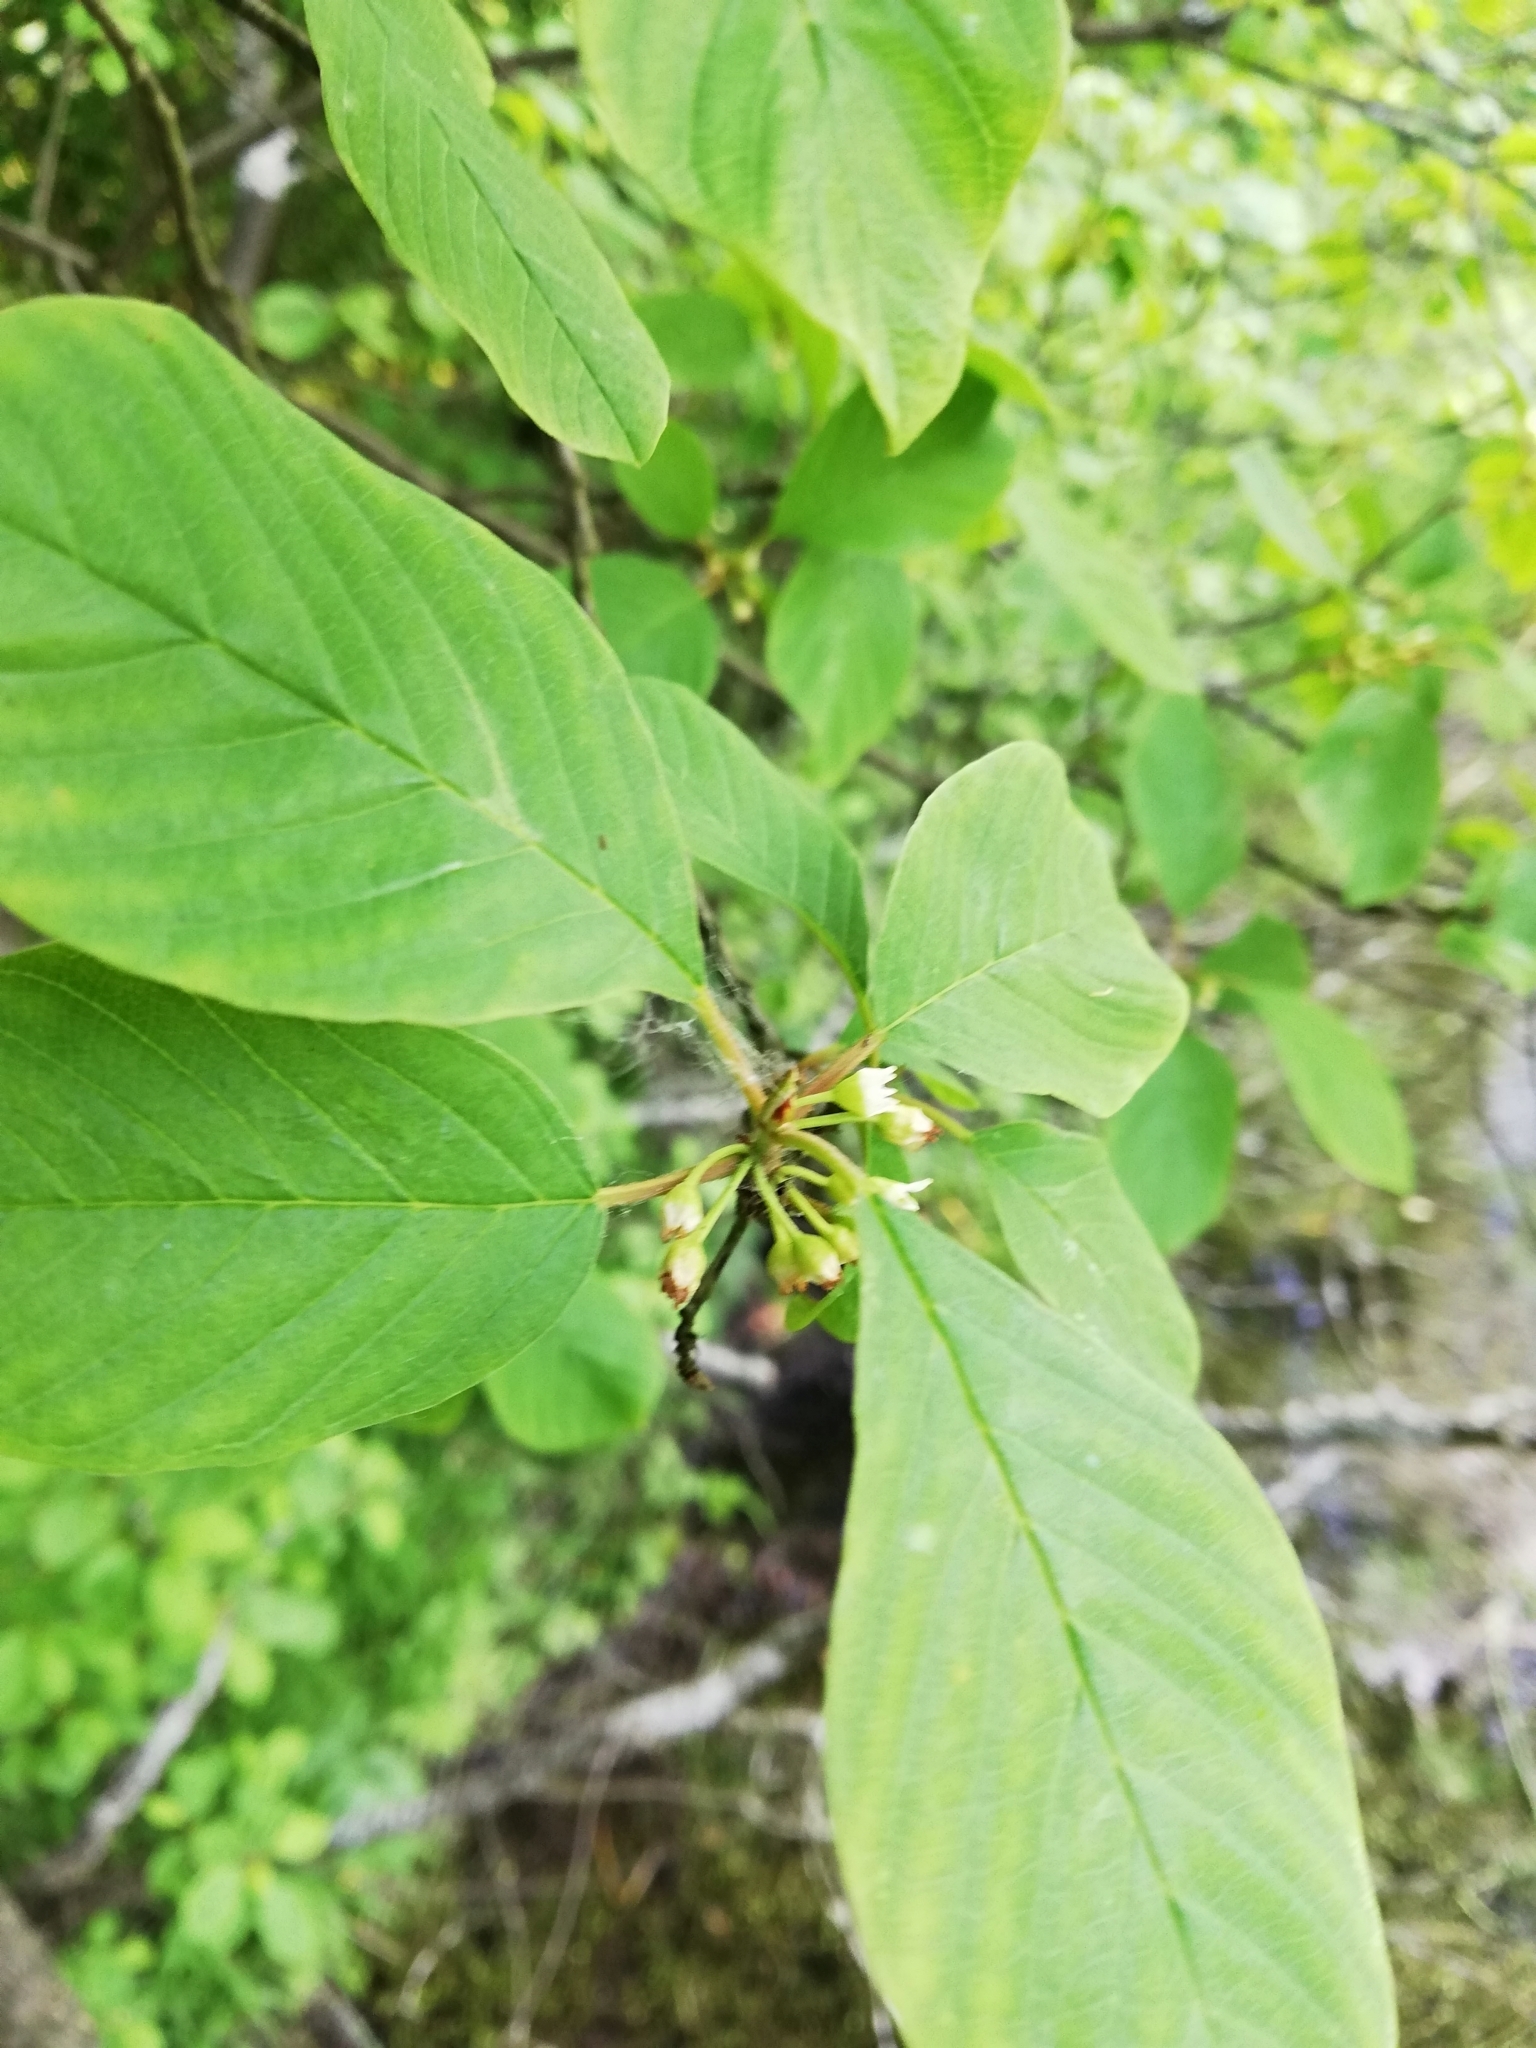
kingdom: Plantae
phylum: Tracheophyta
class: Magnoliopsida
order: Rosales
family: Rhamnaceae
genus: Frangula
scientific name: Frangula alnus
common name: Alder buckthorn
